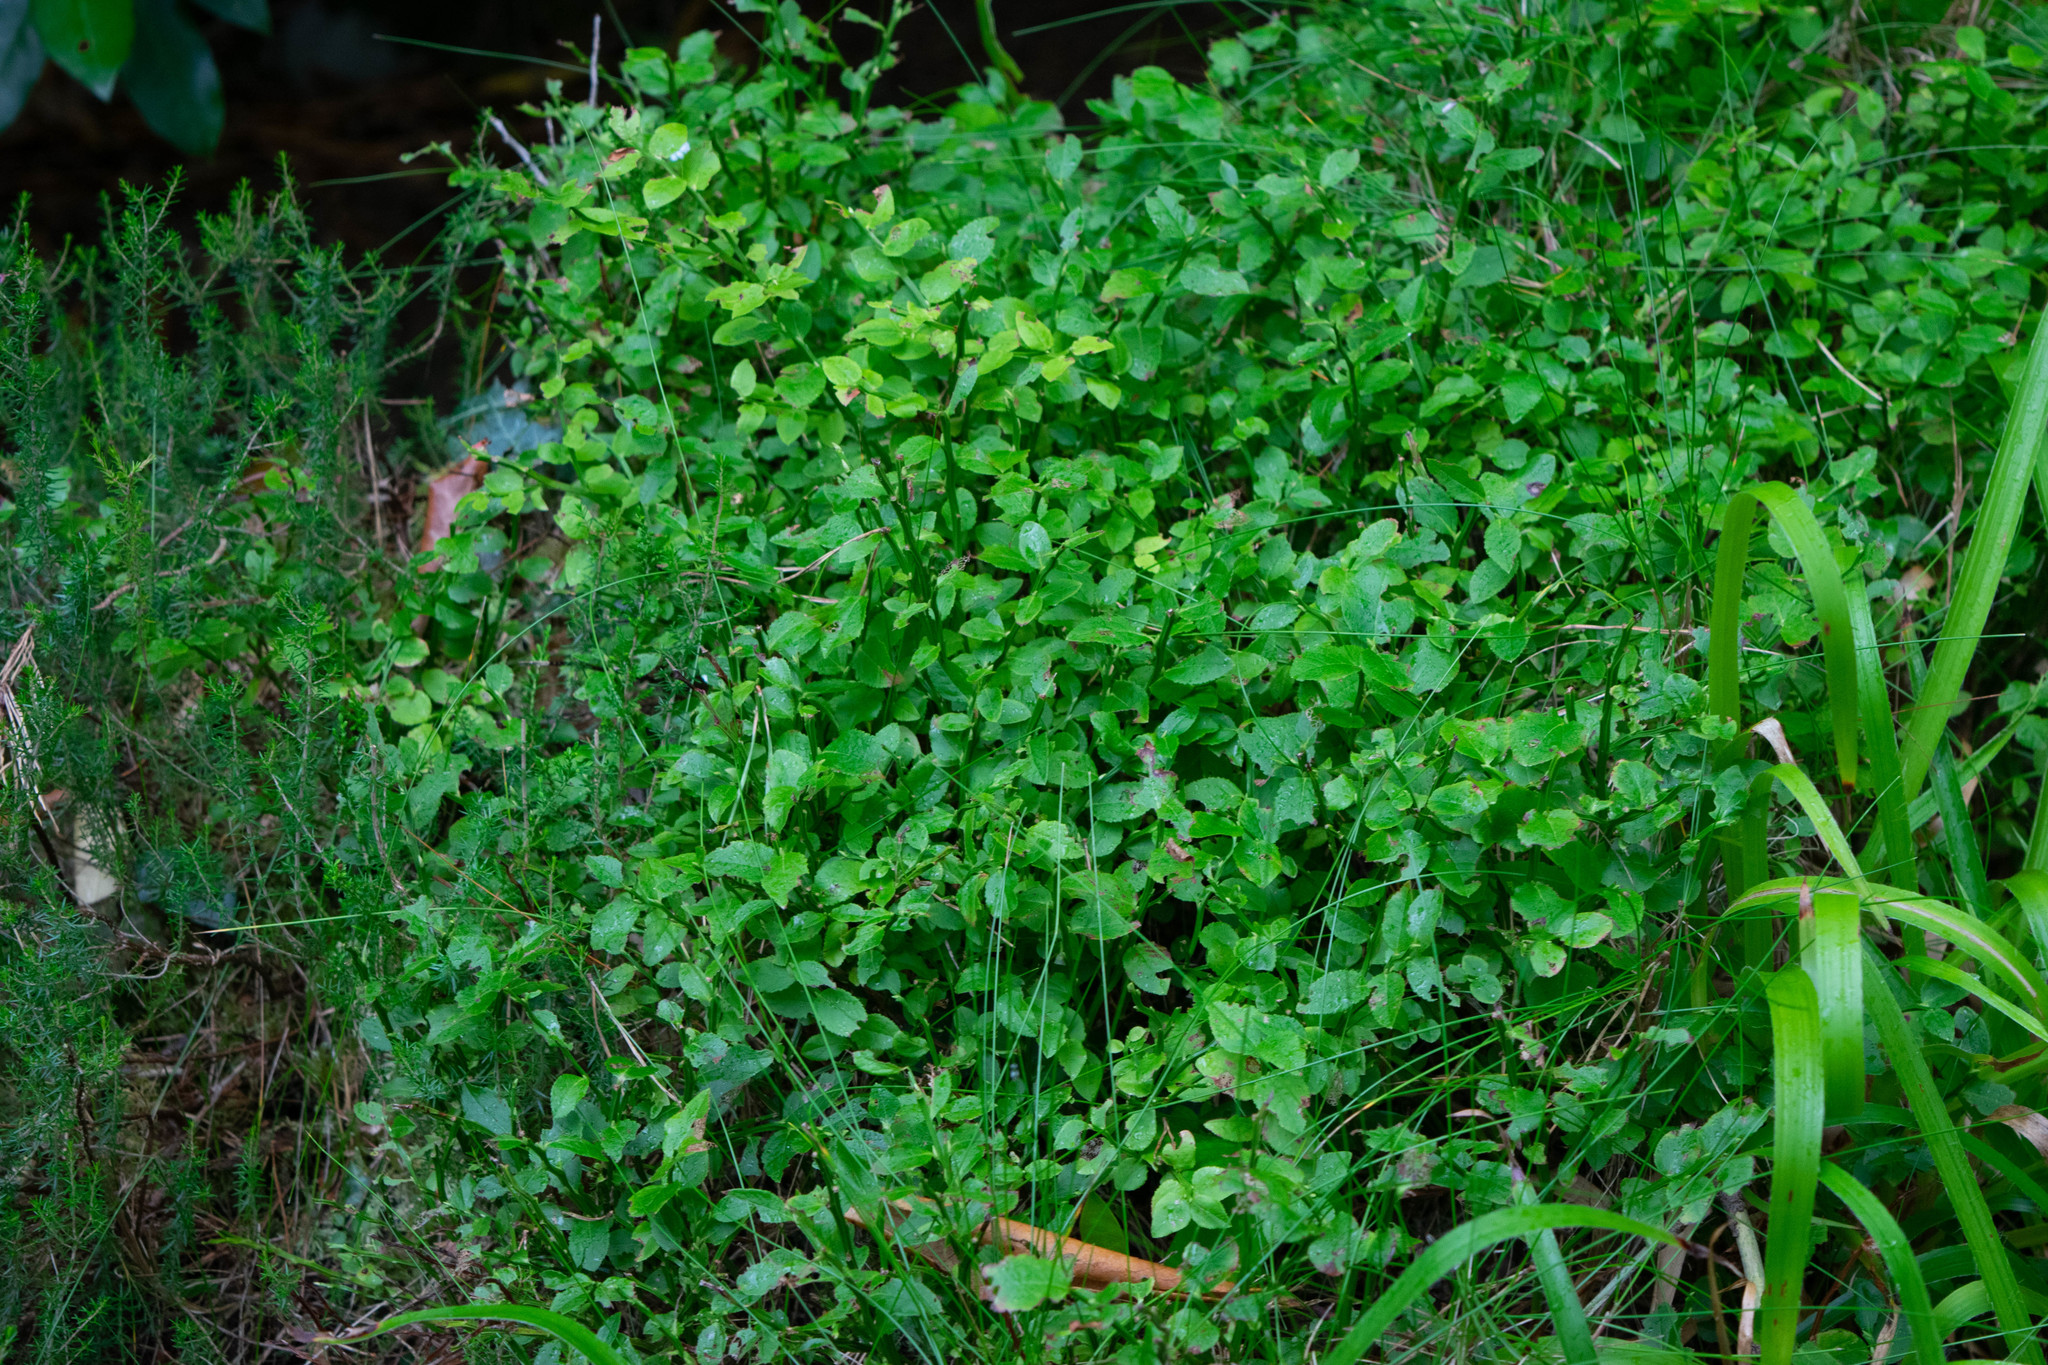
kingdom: Plantae
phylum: Tracheophyta
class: Magnoliopsida
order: Ericales
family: Ericaceae
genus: Vaccinium
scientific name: Vaccinium myrtillus
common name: Bilberry
